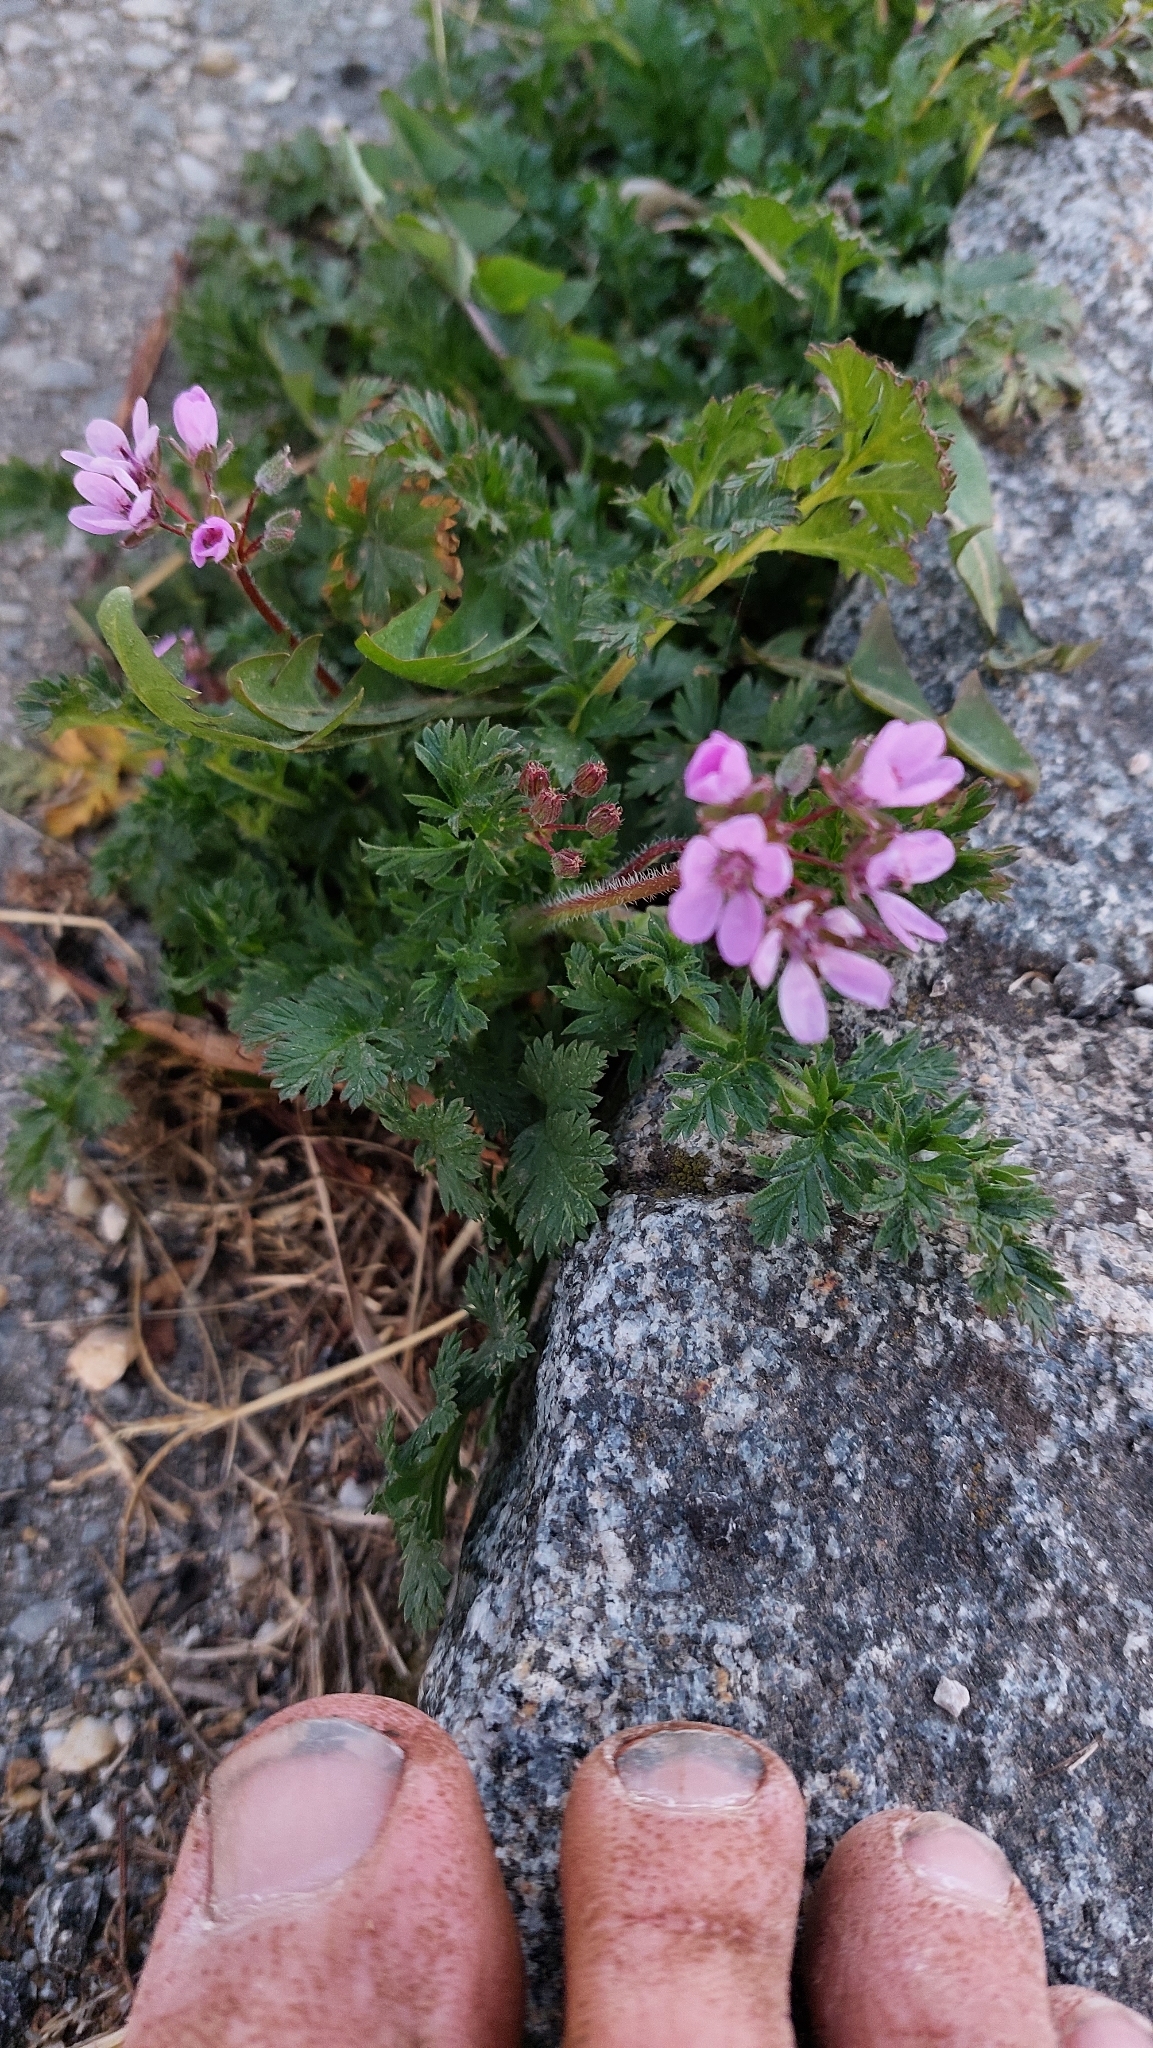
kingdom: Plantae
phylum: Tracheophyta
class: Magnoliopsida
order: Geraniales
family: Geraniaceae
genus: Erodium
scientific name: Erodium cicutarium
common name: Common stork's-bill
